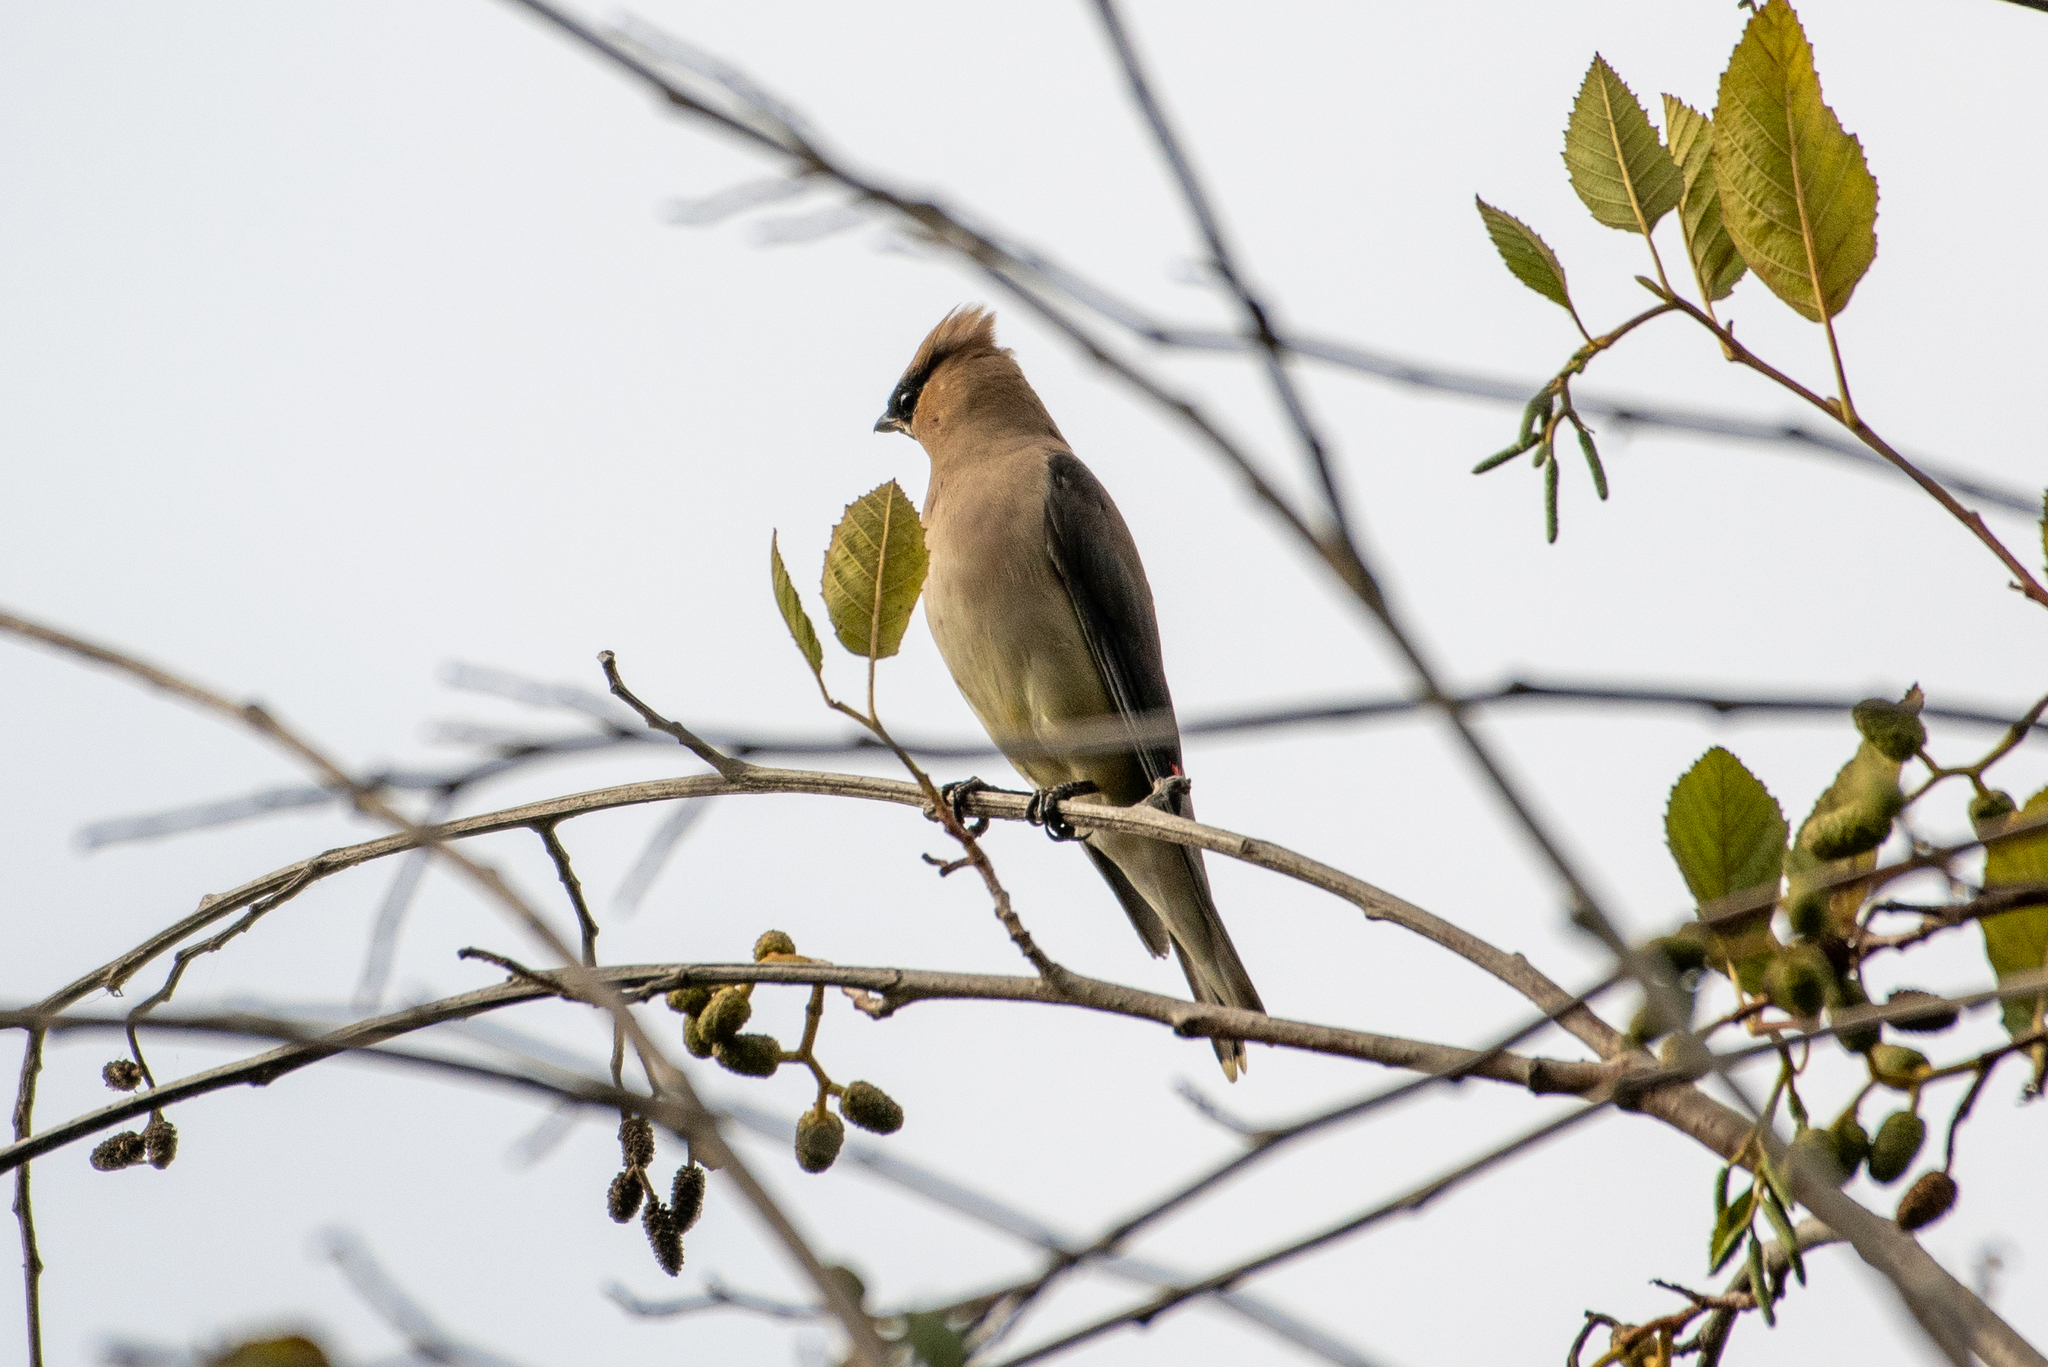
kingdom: Animalia
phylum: Chordata
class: Aves
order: Passeriformes
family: Bombycillidae
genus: Bombycilla
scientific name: Bombycilla cedrorum
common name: Cedar waxwing
